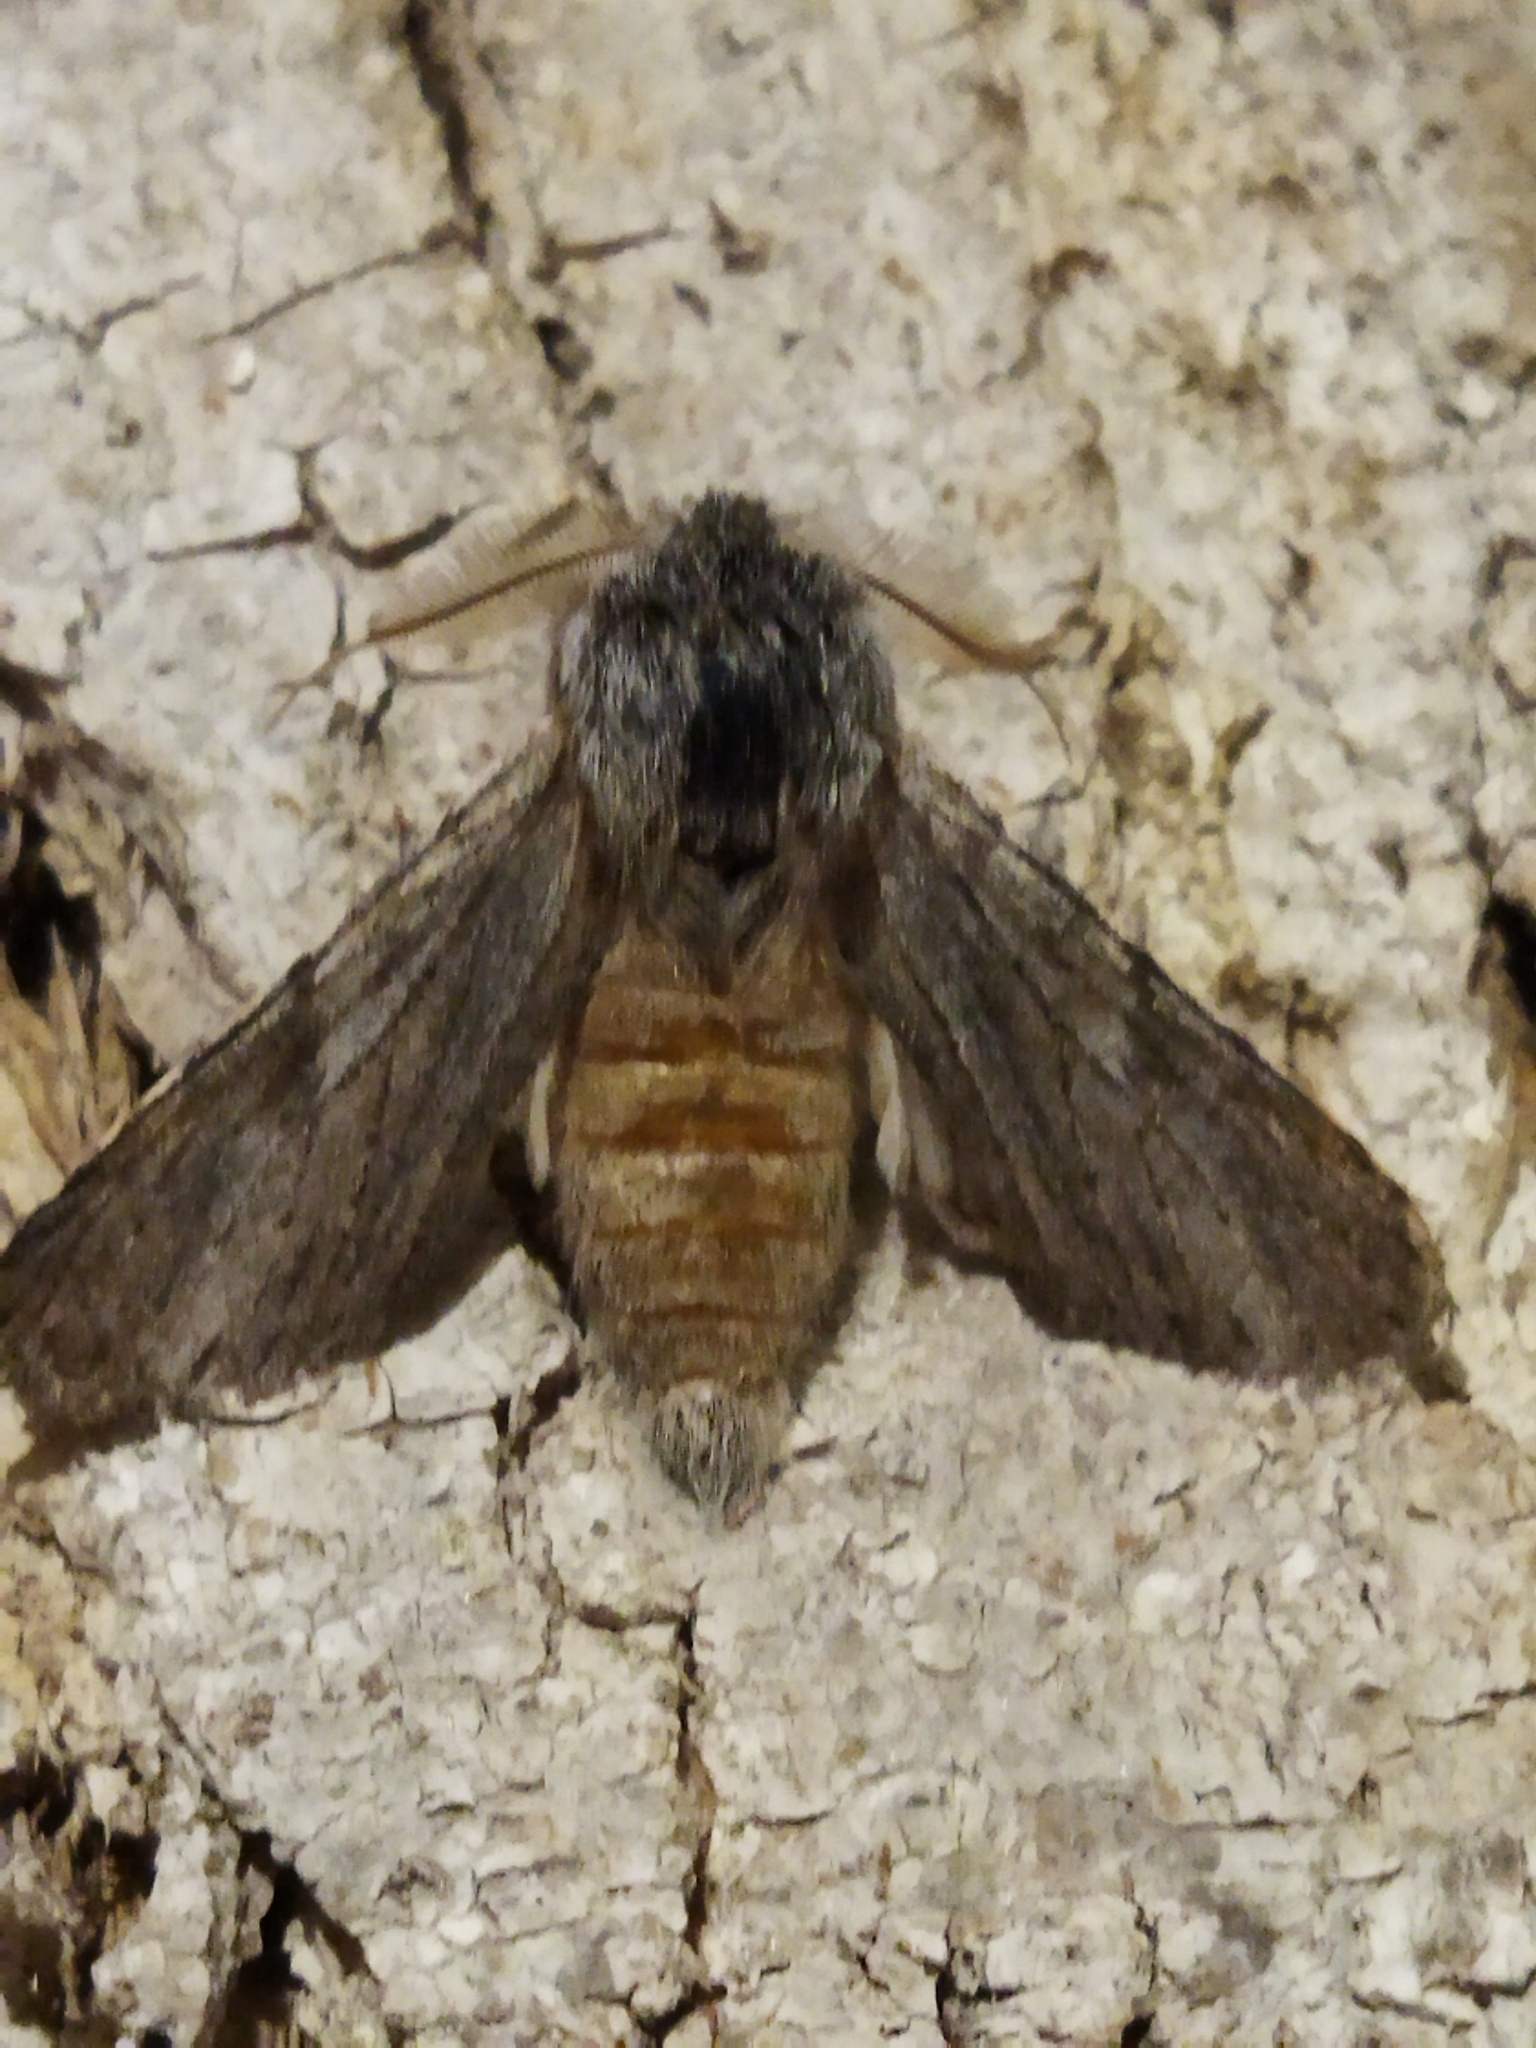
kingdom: Animalia
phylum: Arthropoda
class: Insecta
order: Lepidoptera
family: Notodontidae
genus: Dicranura
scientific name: Dicranura ulmi
